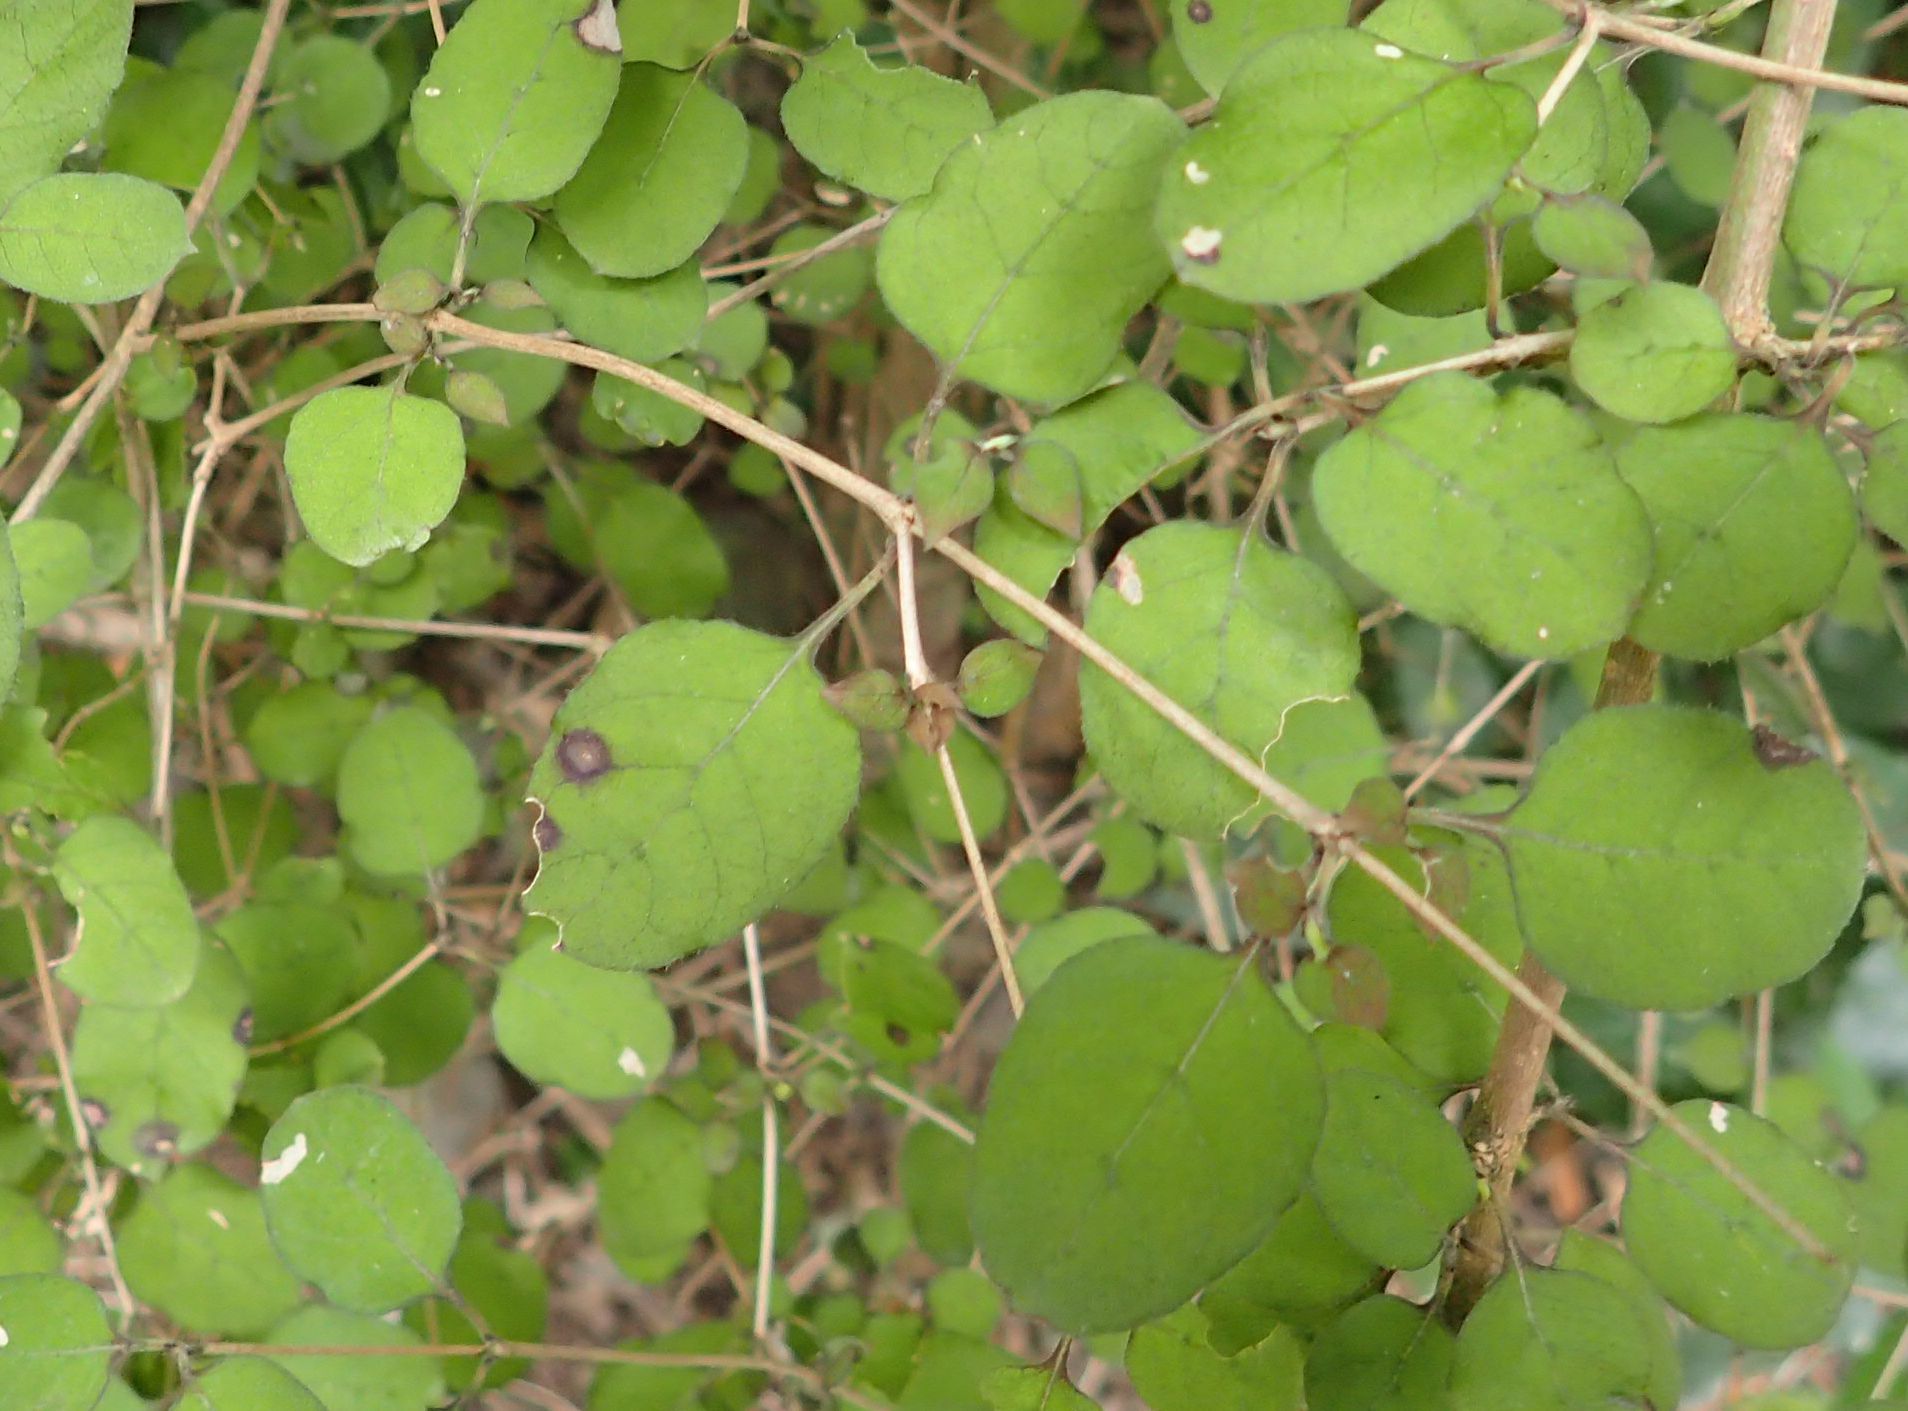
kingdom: Plantae
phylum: Tracheophyta
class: Magnoliopsida
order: Gentianales
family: Rubiaceae
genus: Coprosma
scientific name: Coprosma rotundifolia
